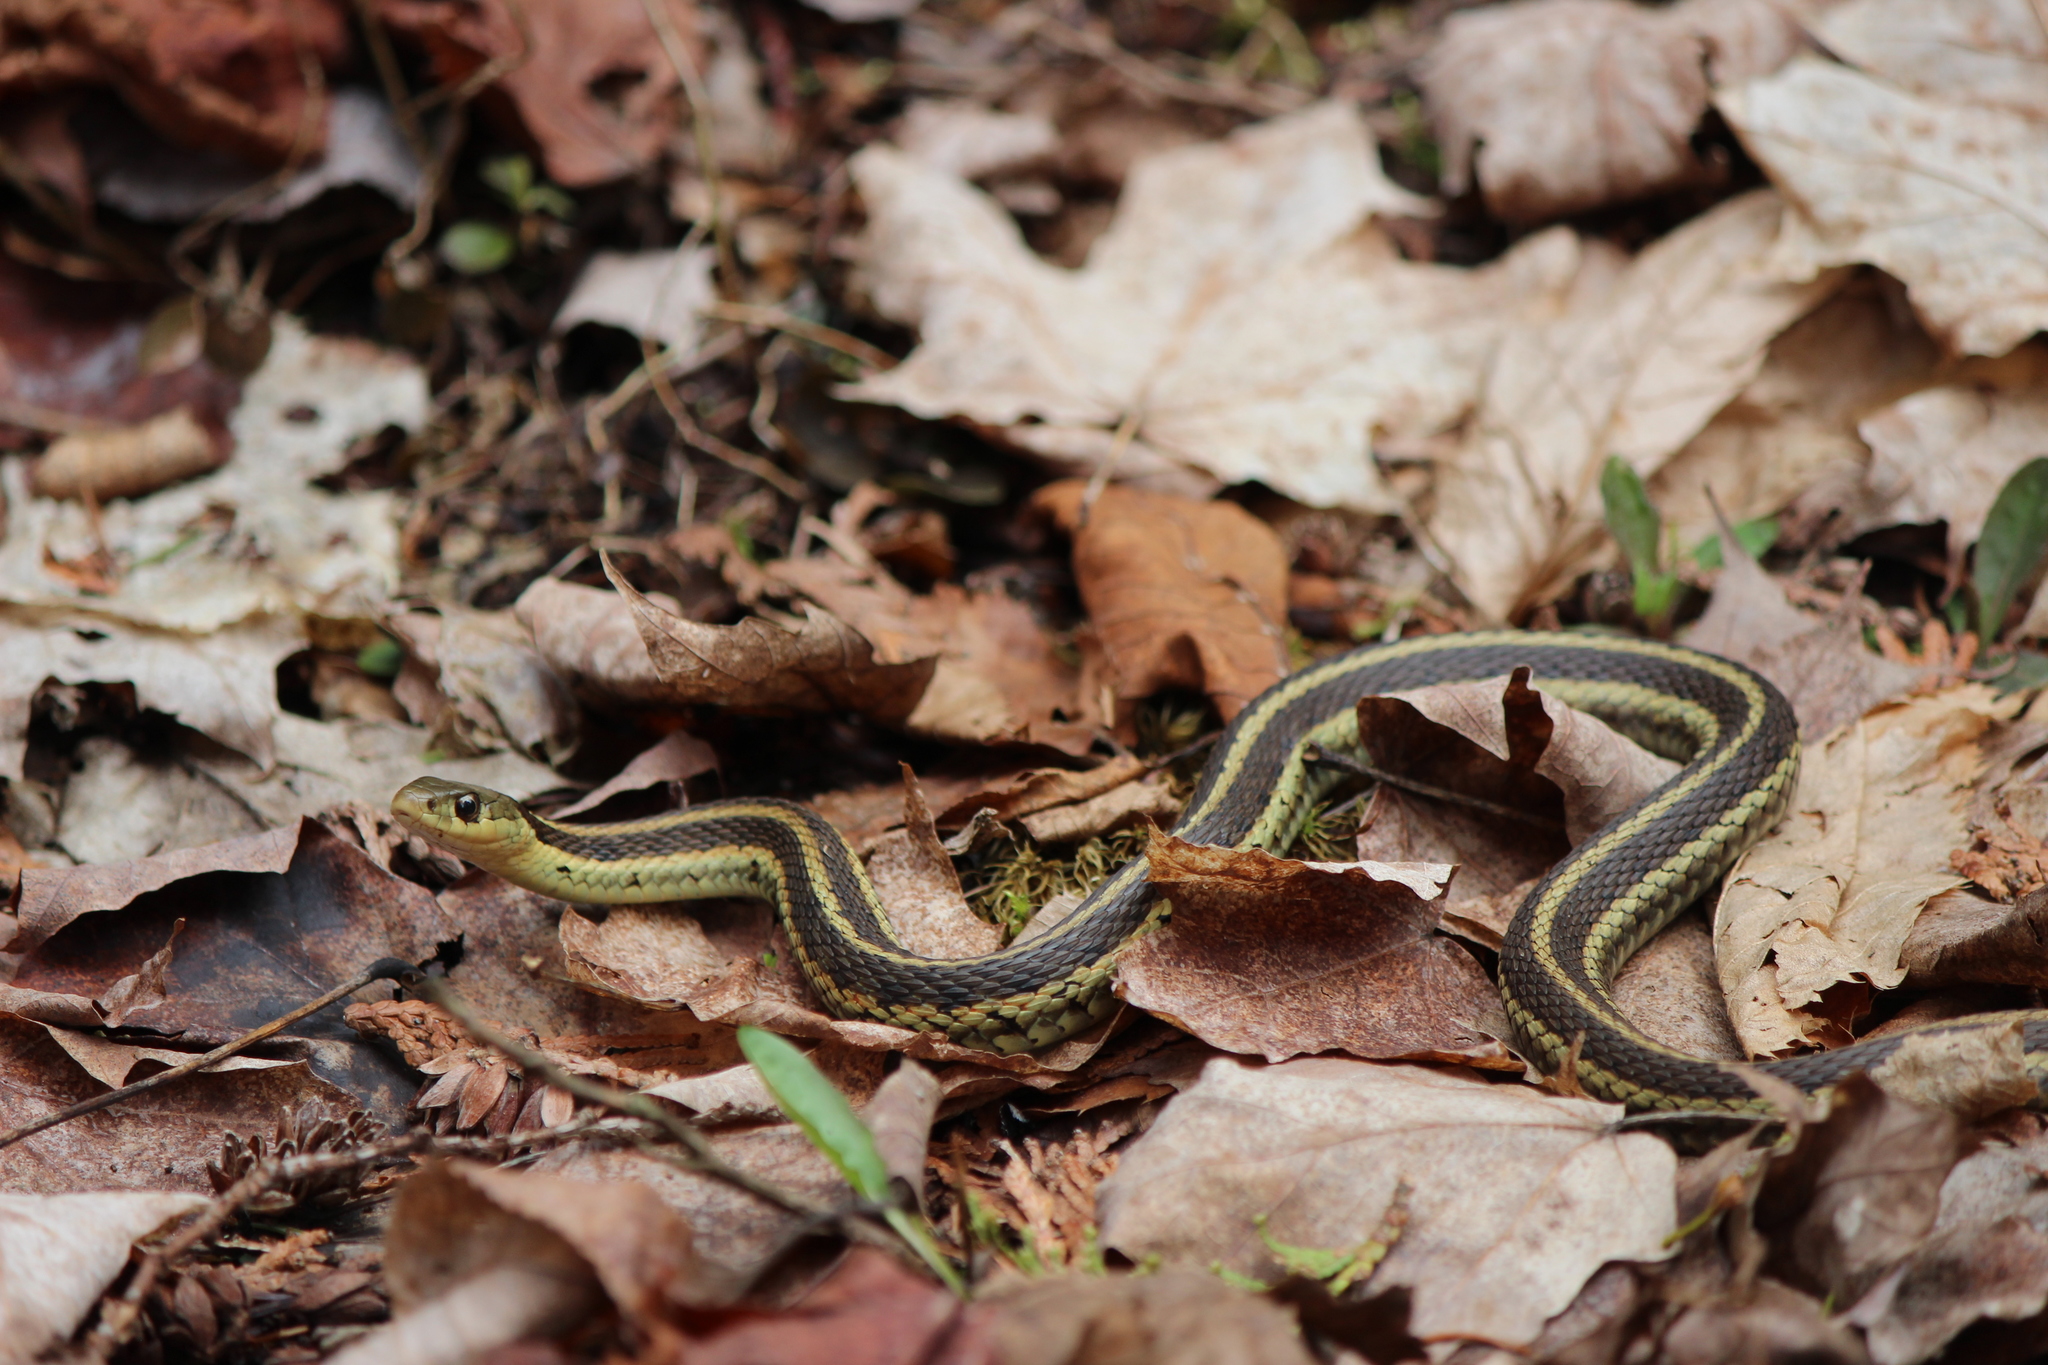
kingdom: Animalia
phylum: Chordata
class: Squamata
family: Colubridae
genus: Thamnophis
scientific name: Thamnophis sirtalis
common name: Common garter snake
